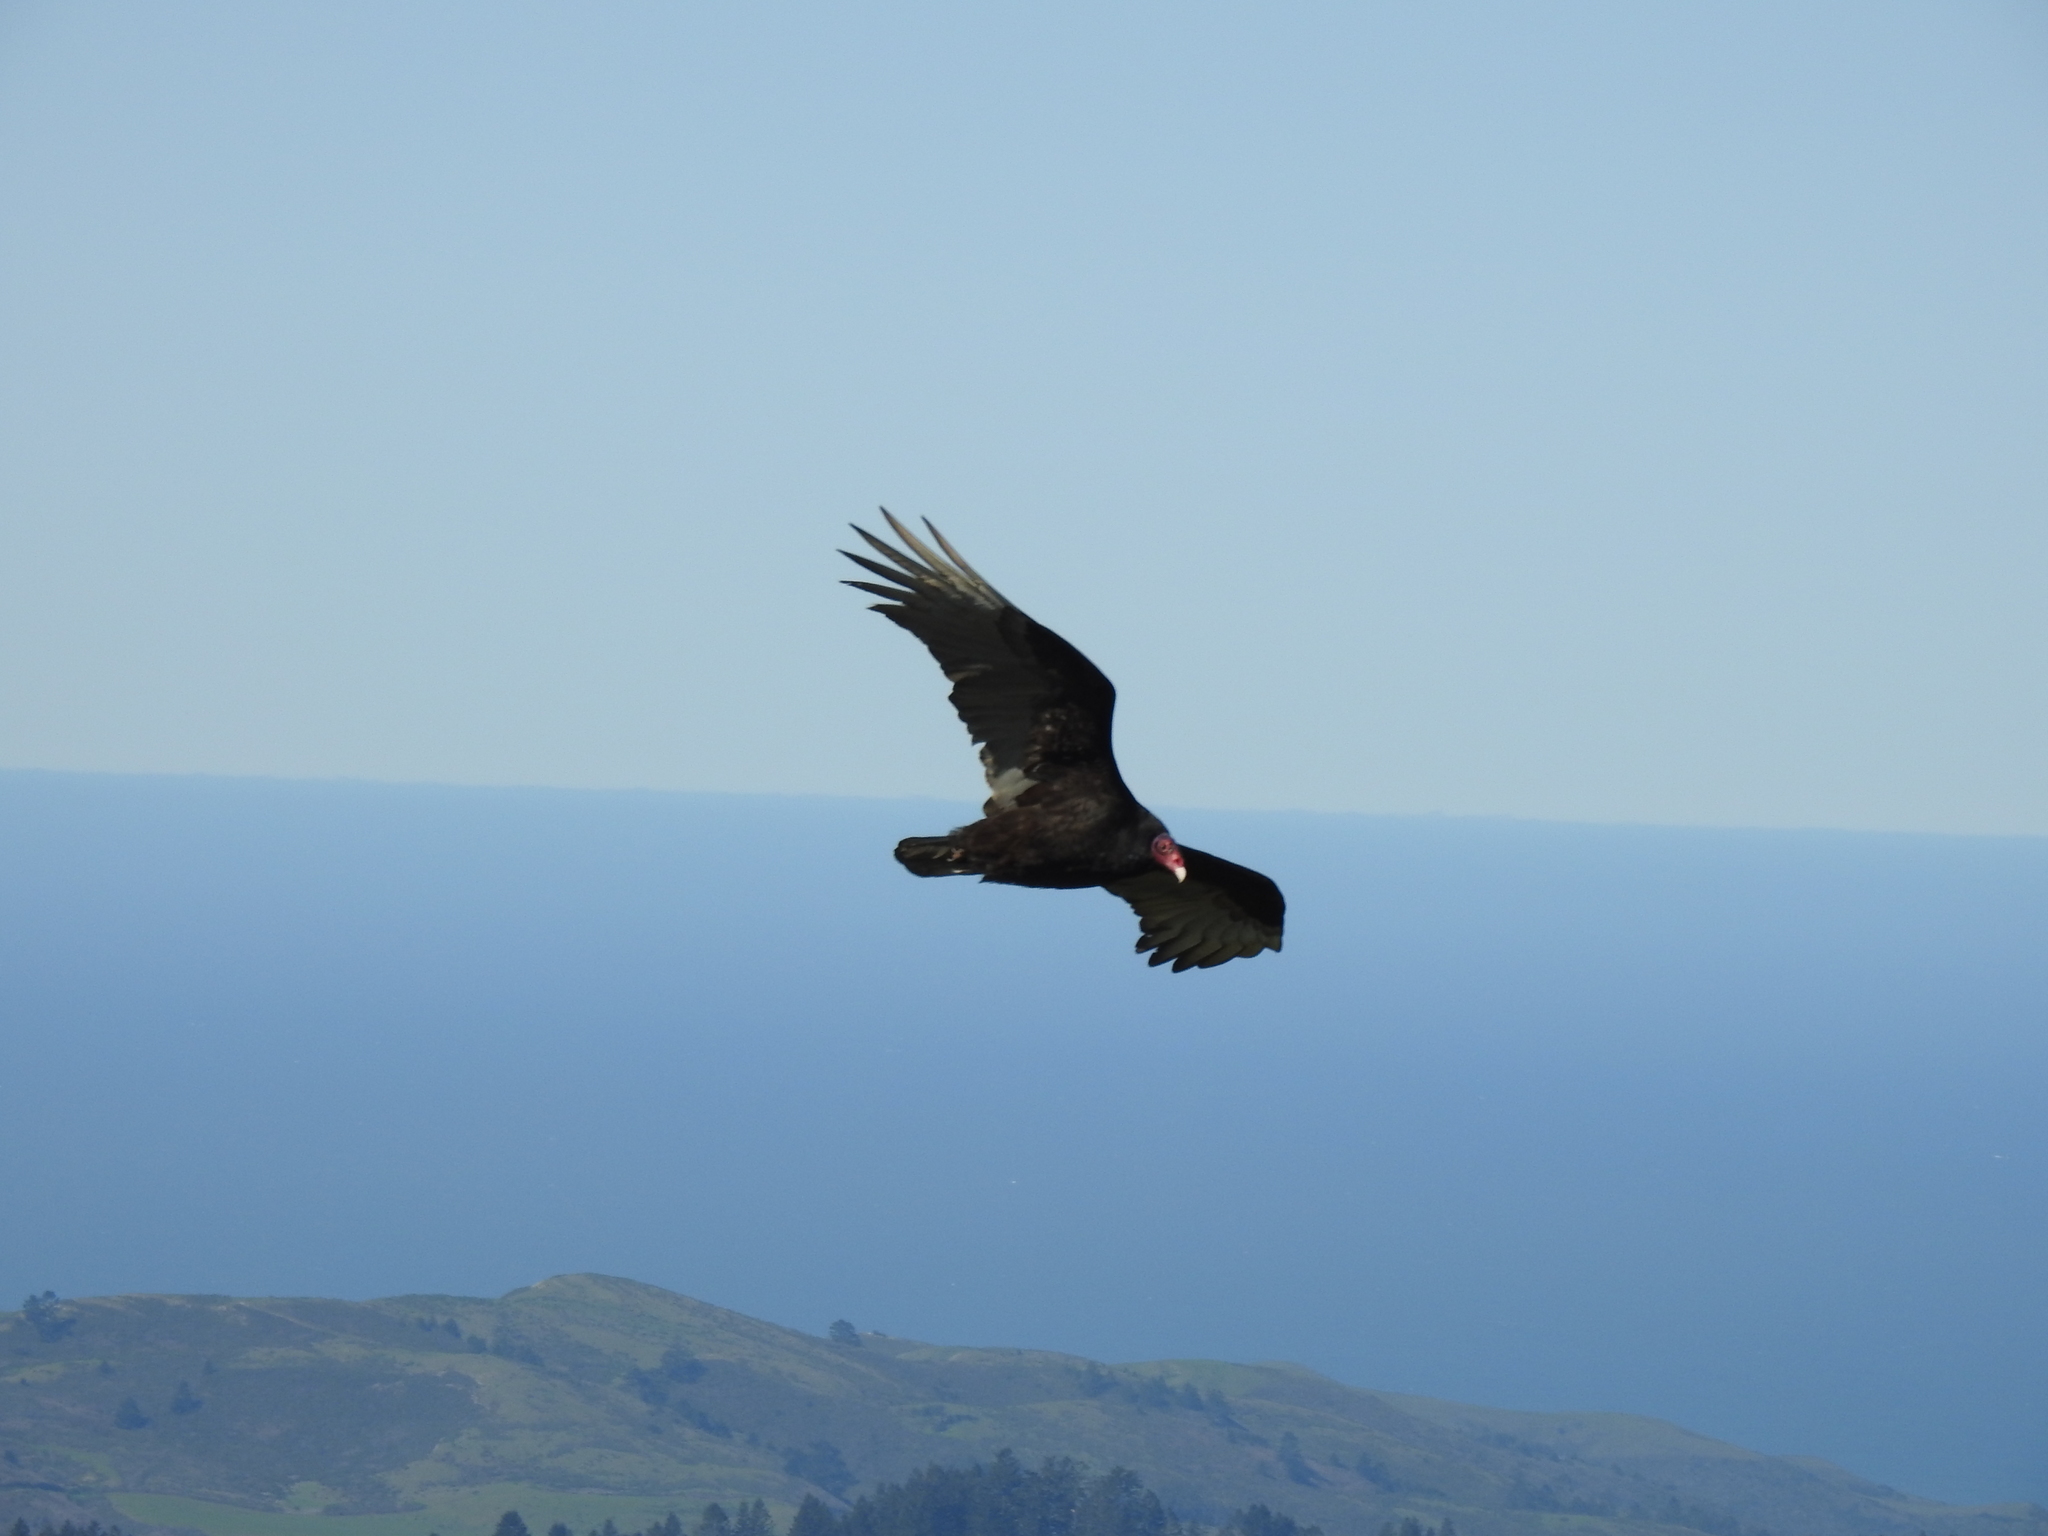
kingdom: Animalia
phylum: Chordata
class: Aves
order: Accipitriformes
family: Cathartidae
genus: Cathartes
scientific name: Cathartes aura
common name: Turkey vulture
